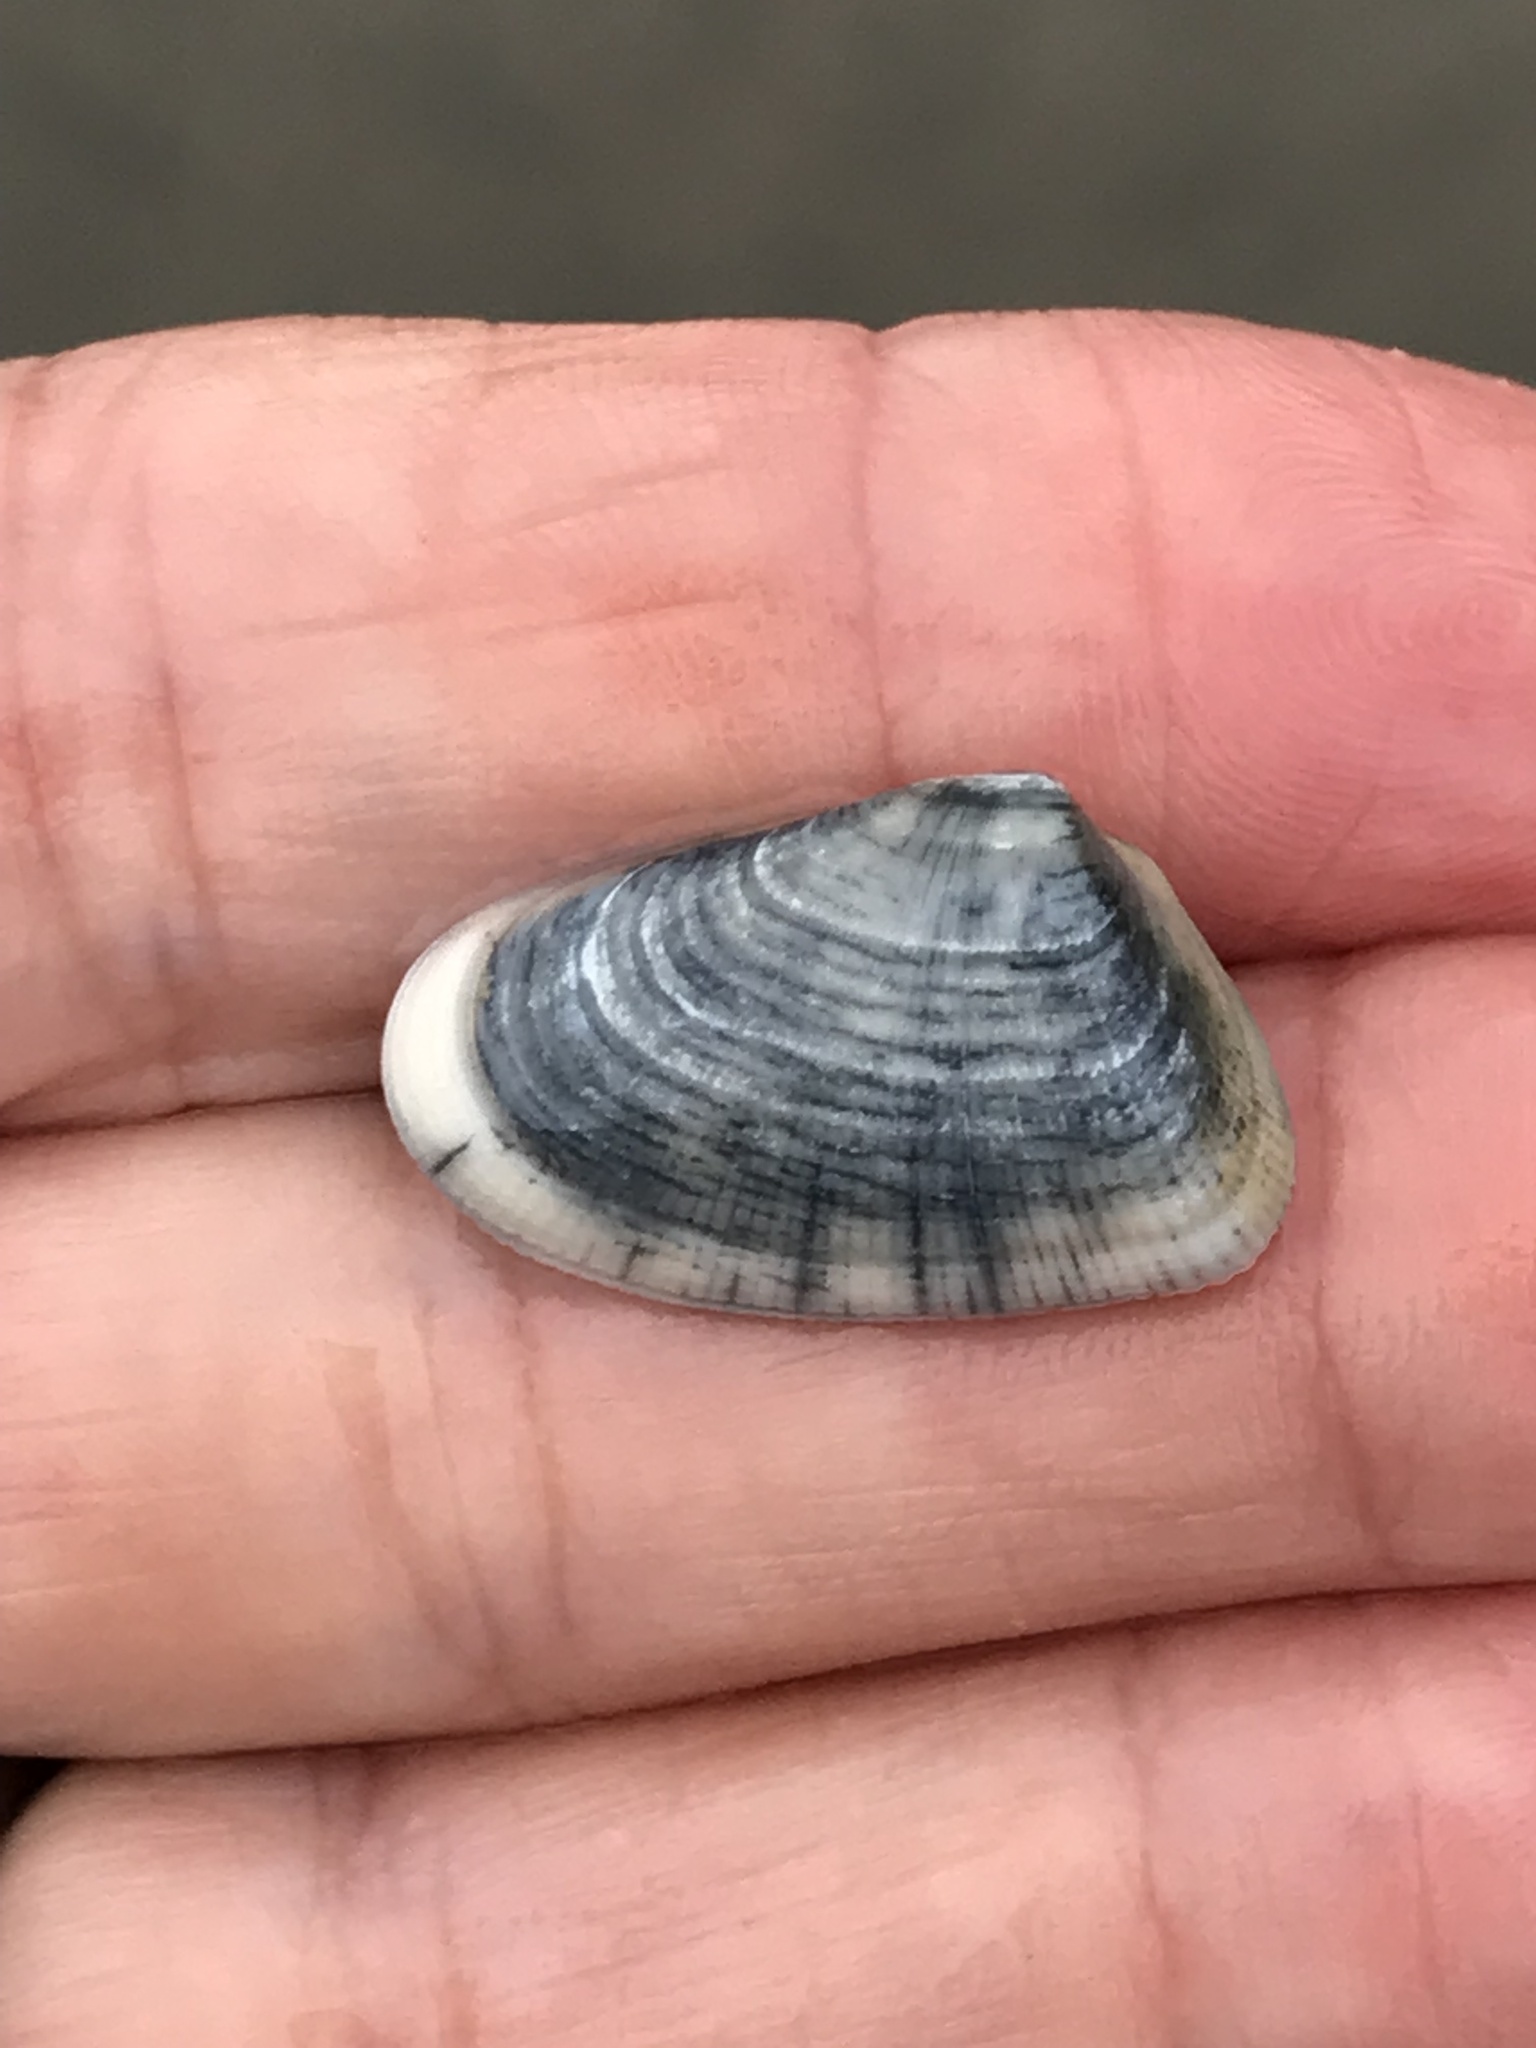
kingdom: Animalia
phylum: Mollusca
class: Bivalvia
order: Cardiida
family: Donacidae
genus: Donax
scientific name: Donax gouldii
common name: Gould beanclam
